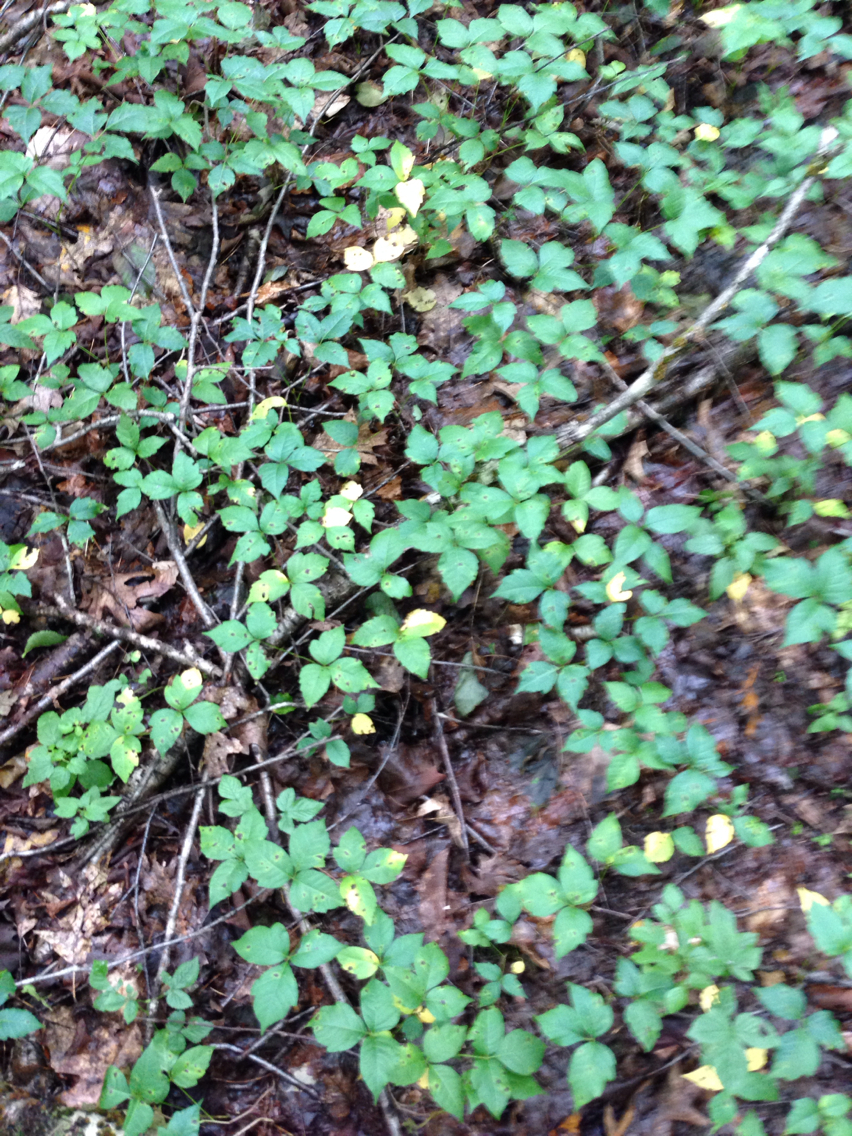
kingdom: Plantae
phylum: Tracheophyta
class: Magnoliopsida
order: Sapindales
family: Anacardiaceae
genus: Toxicodendron
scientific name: Toxicodendron radicans
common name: Poison ivy
